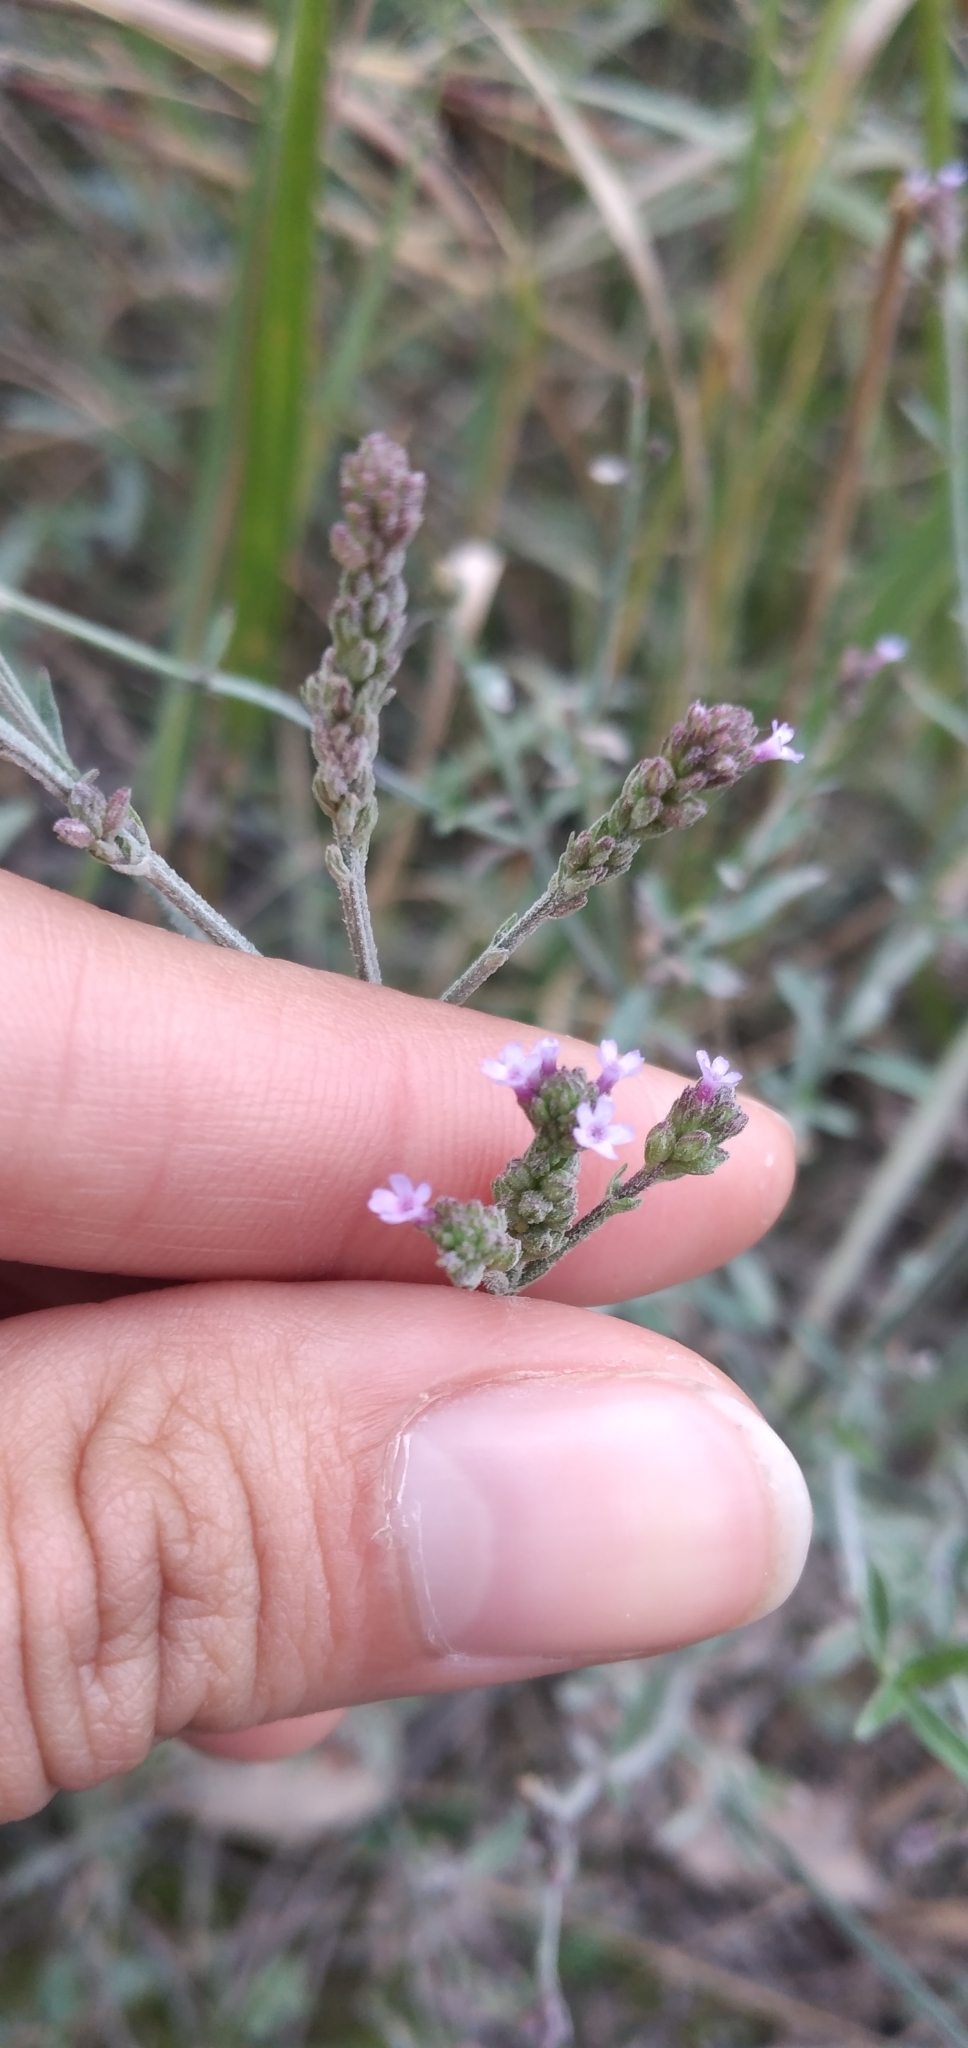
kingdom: Plantae
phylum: Tracheophyta
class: Magnoliopsida
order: Lamiales
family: Verbenaceae
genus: Verbena
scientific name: Verbena litoralis
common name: Seashore vervain
